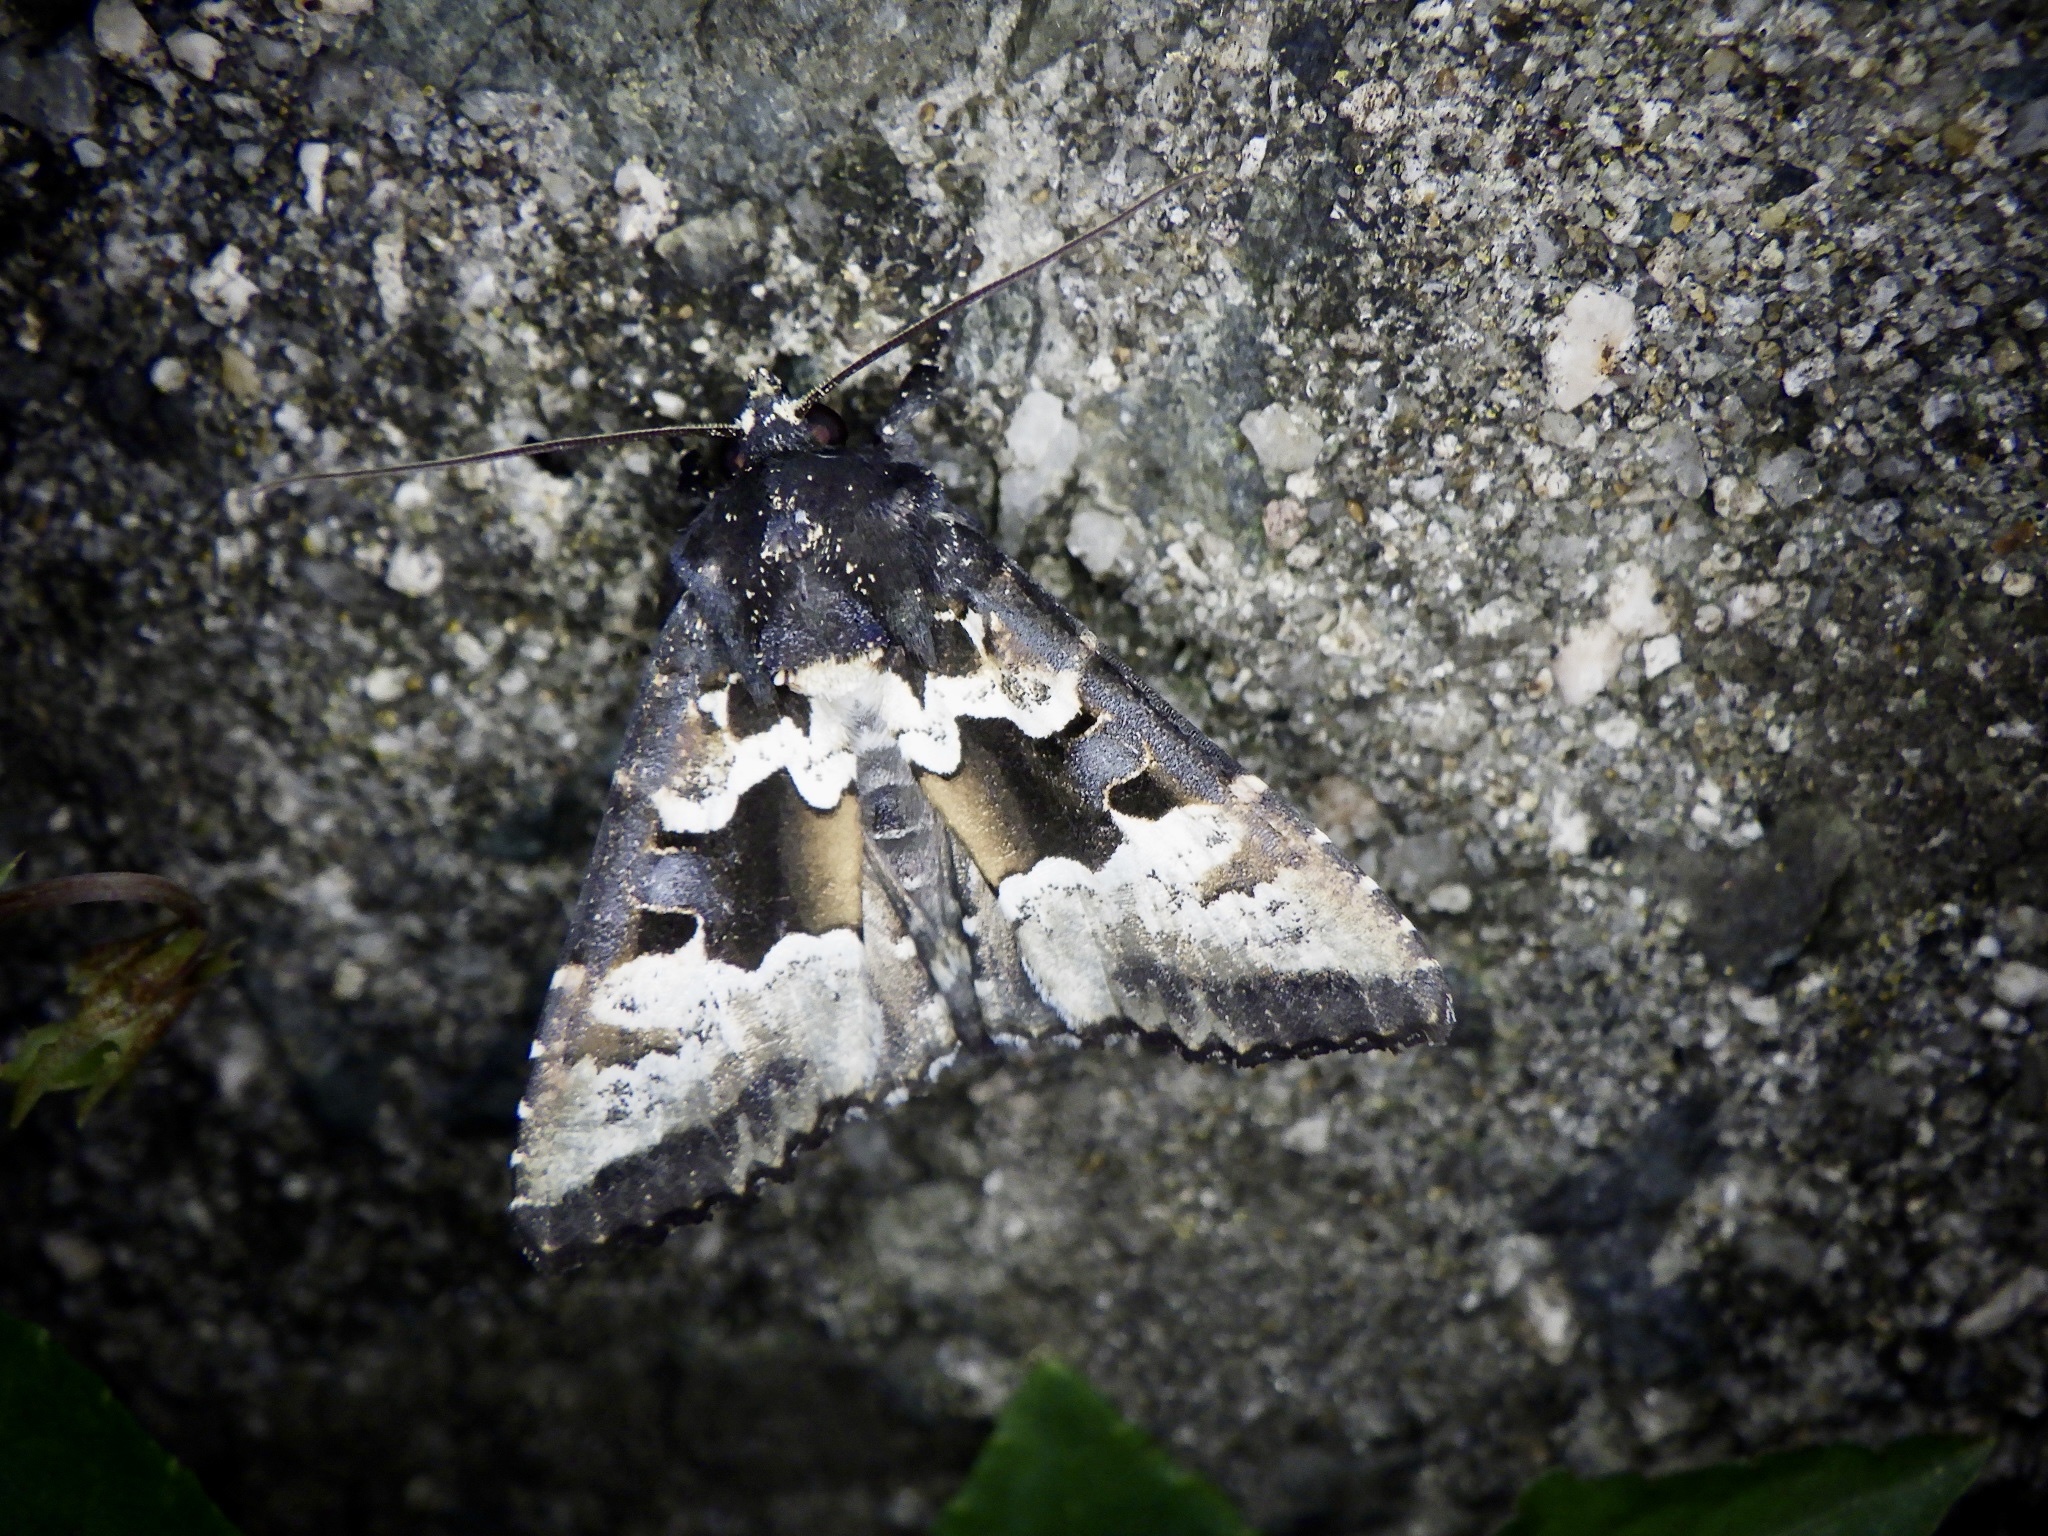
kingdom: Animalia
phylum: Arthropoda
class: Insecta
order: Lepidoptera
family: Noctuidae
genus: Phlogophora
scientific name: Phlogophora albovittata
